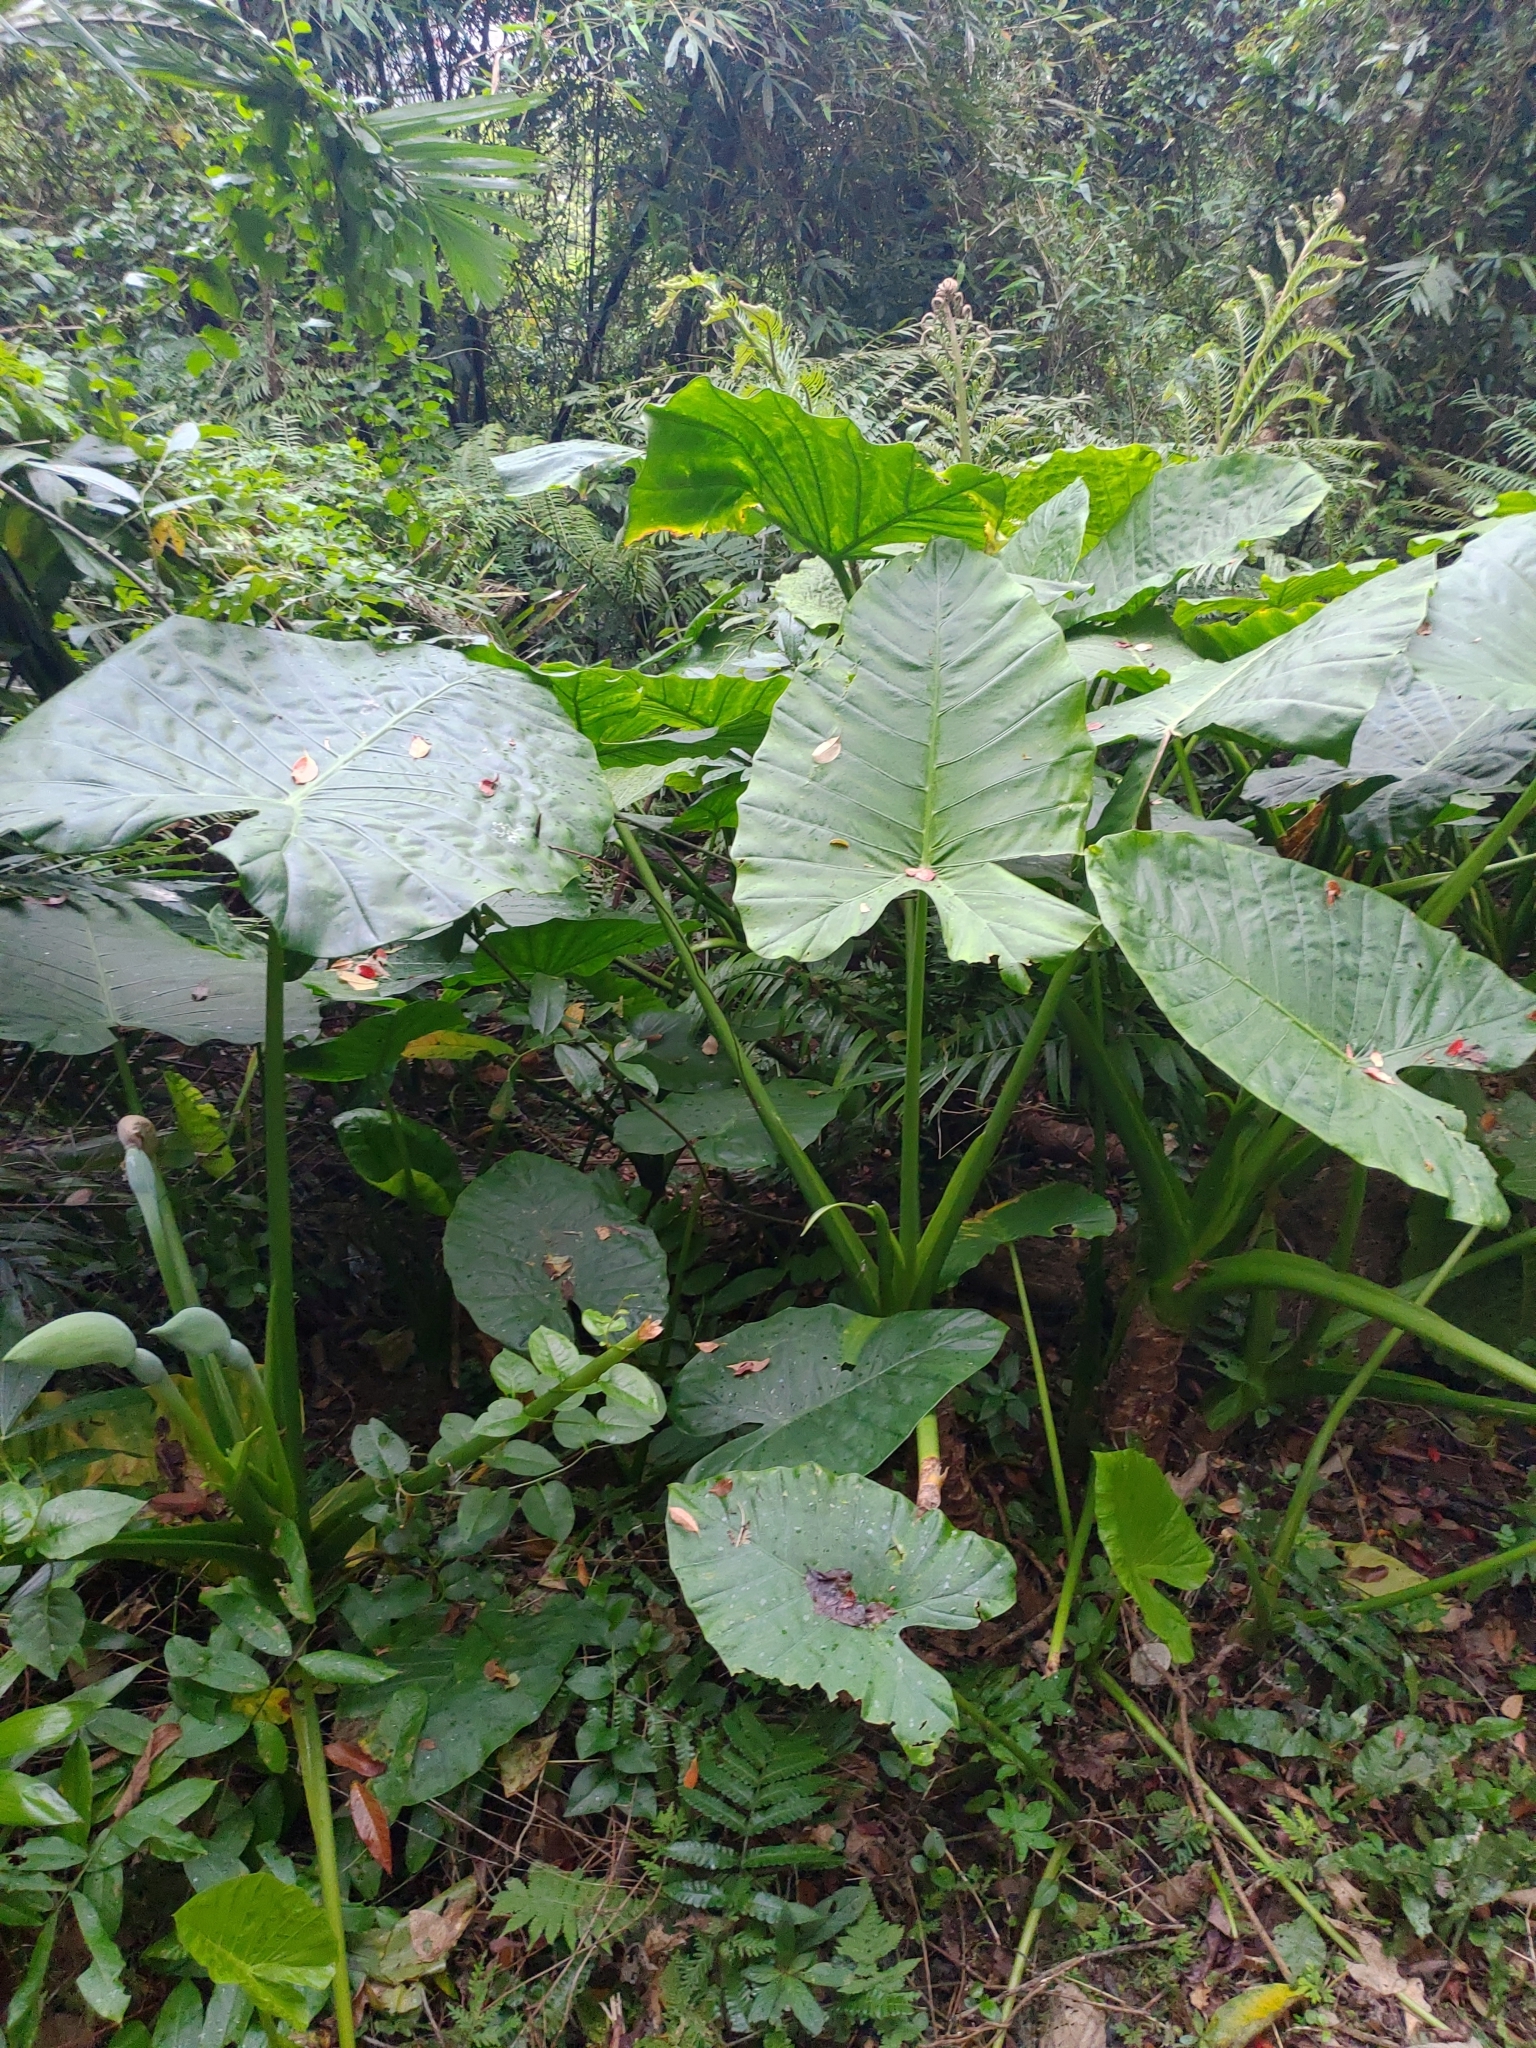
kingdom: Plantae
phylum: Tracheophyta
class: Liliopsida
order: Alismatales
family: Araceae
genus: Alocasia
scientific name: Alocasia odora
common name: Asian taro
